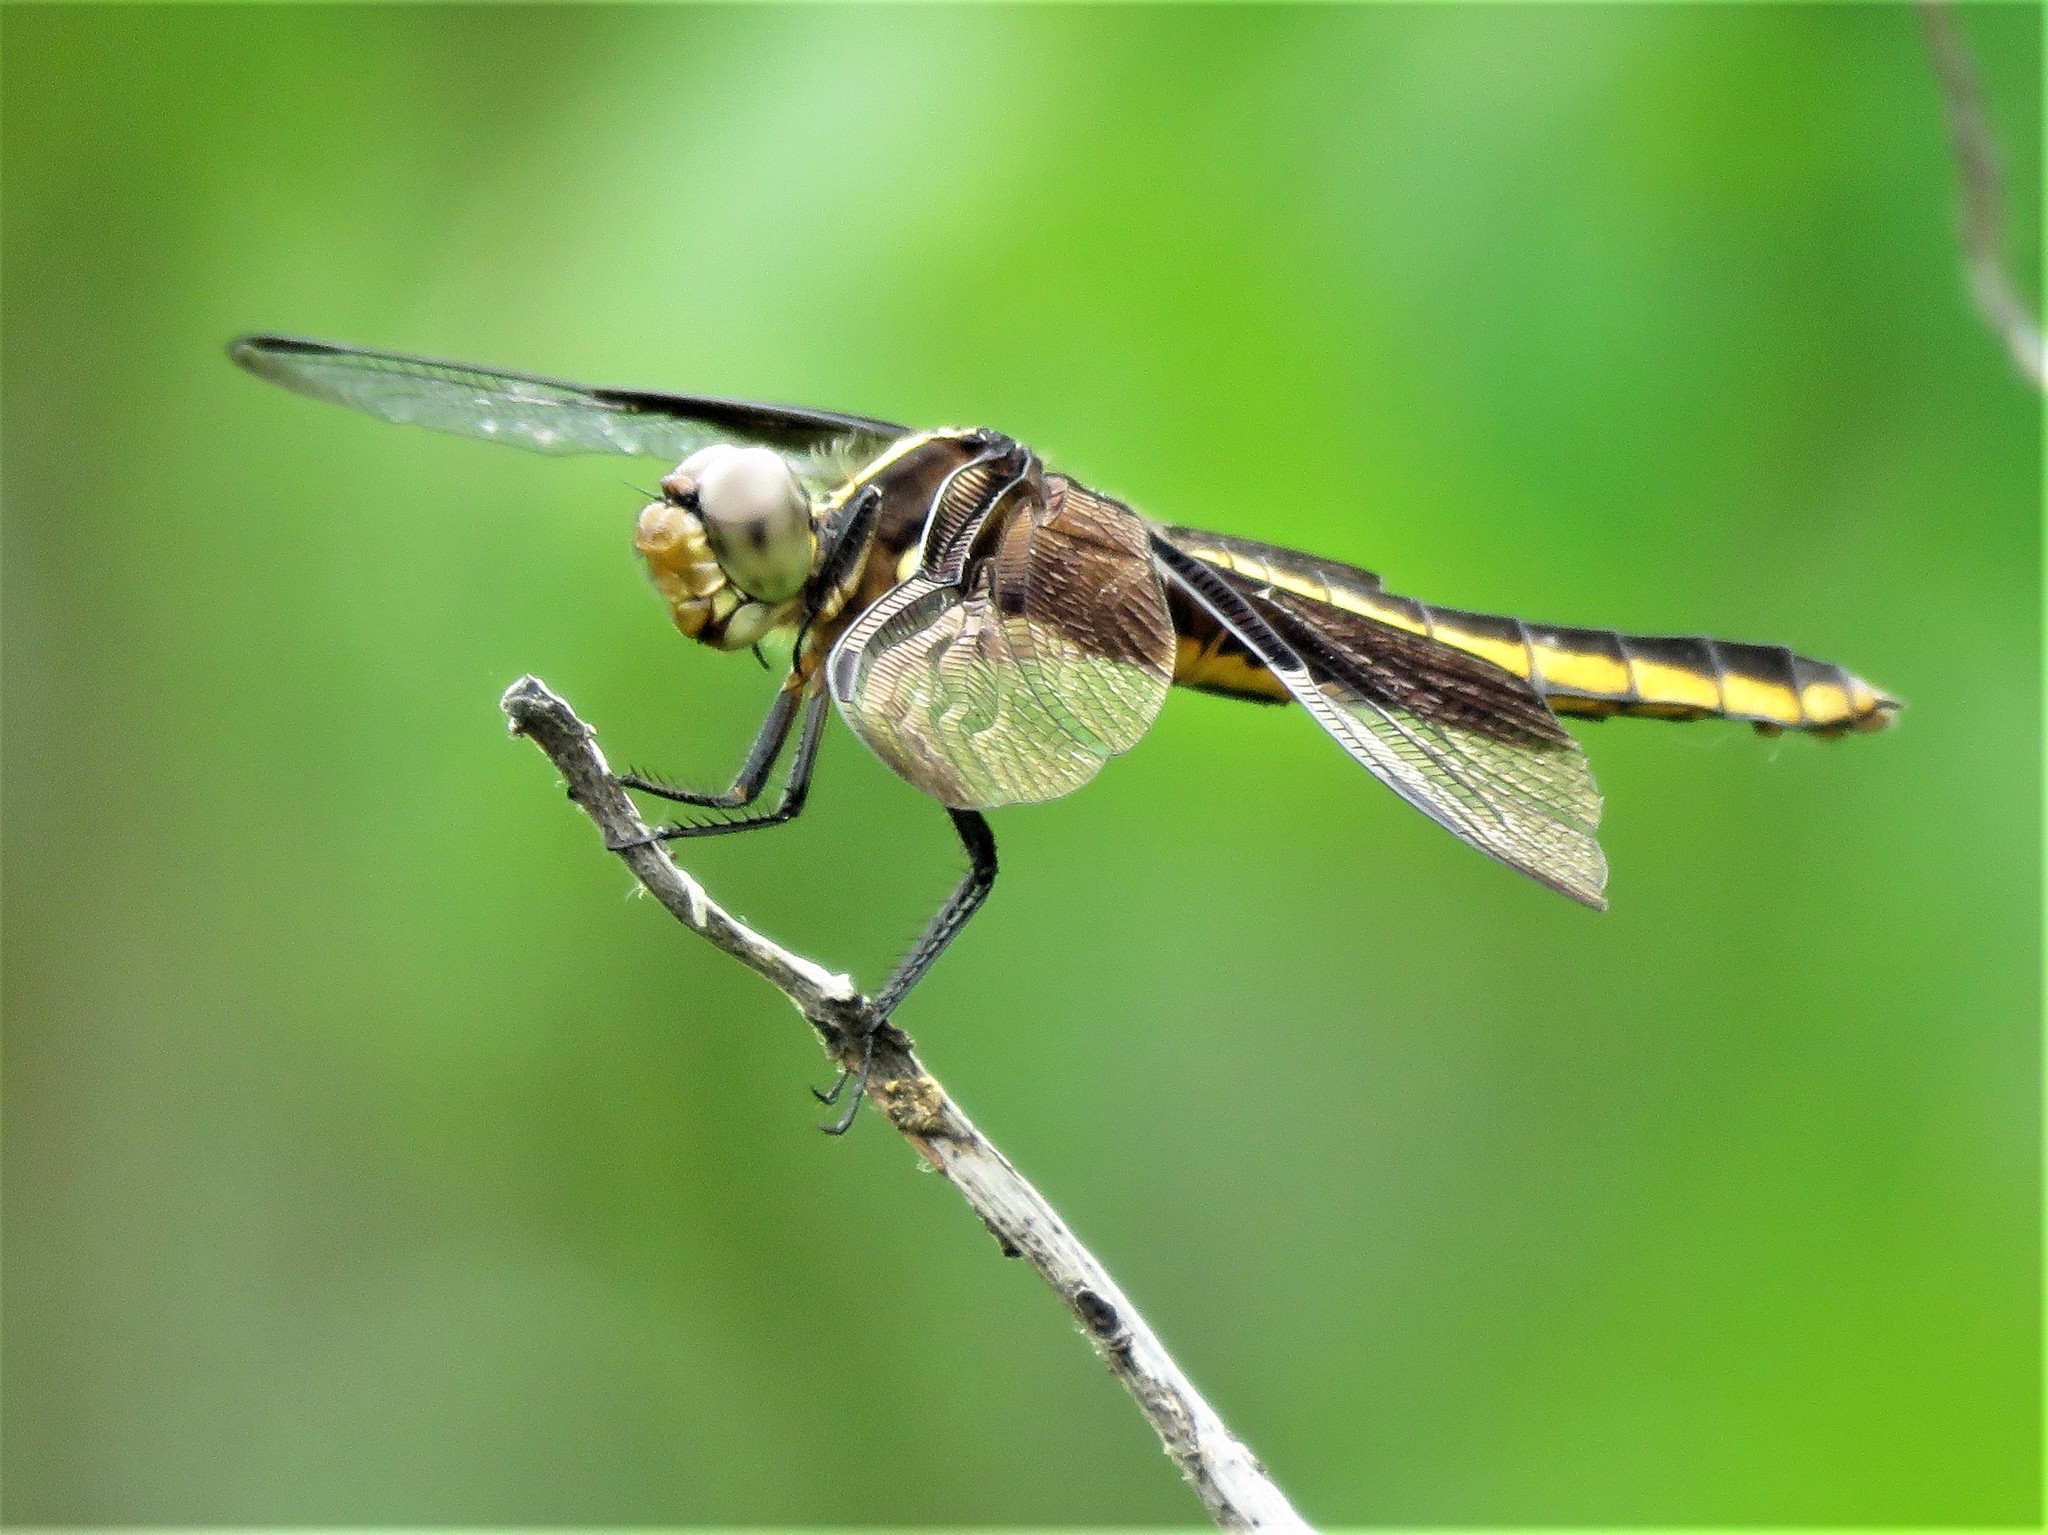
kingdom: Animalia
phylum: Arthropoda
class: Insecta
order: Odonata
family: Libellulidae
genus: Libellula
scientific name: Libellula luctuosa
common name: Widow skimmer
